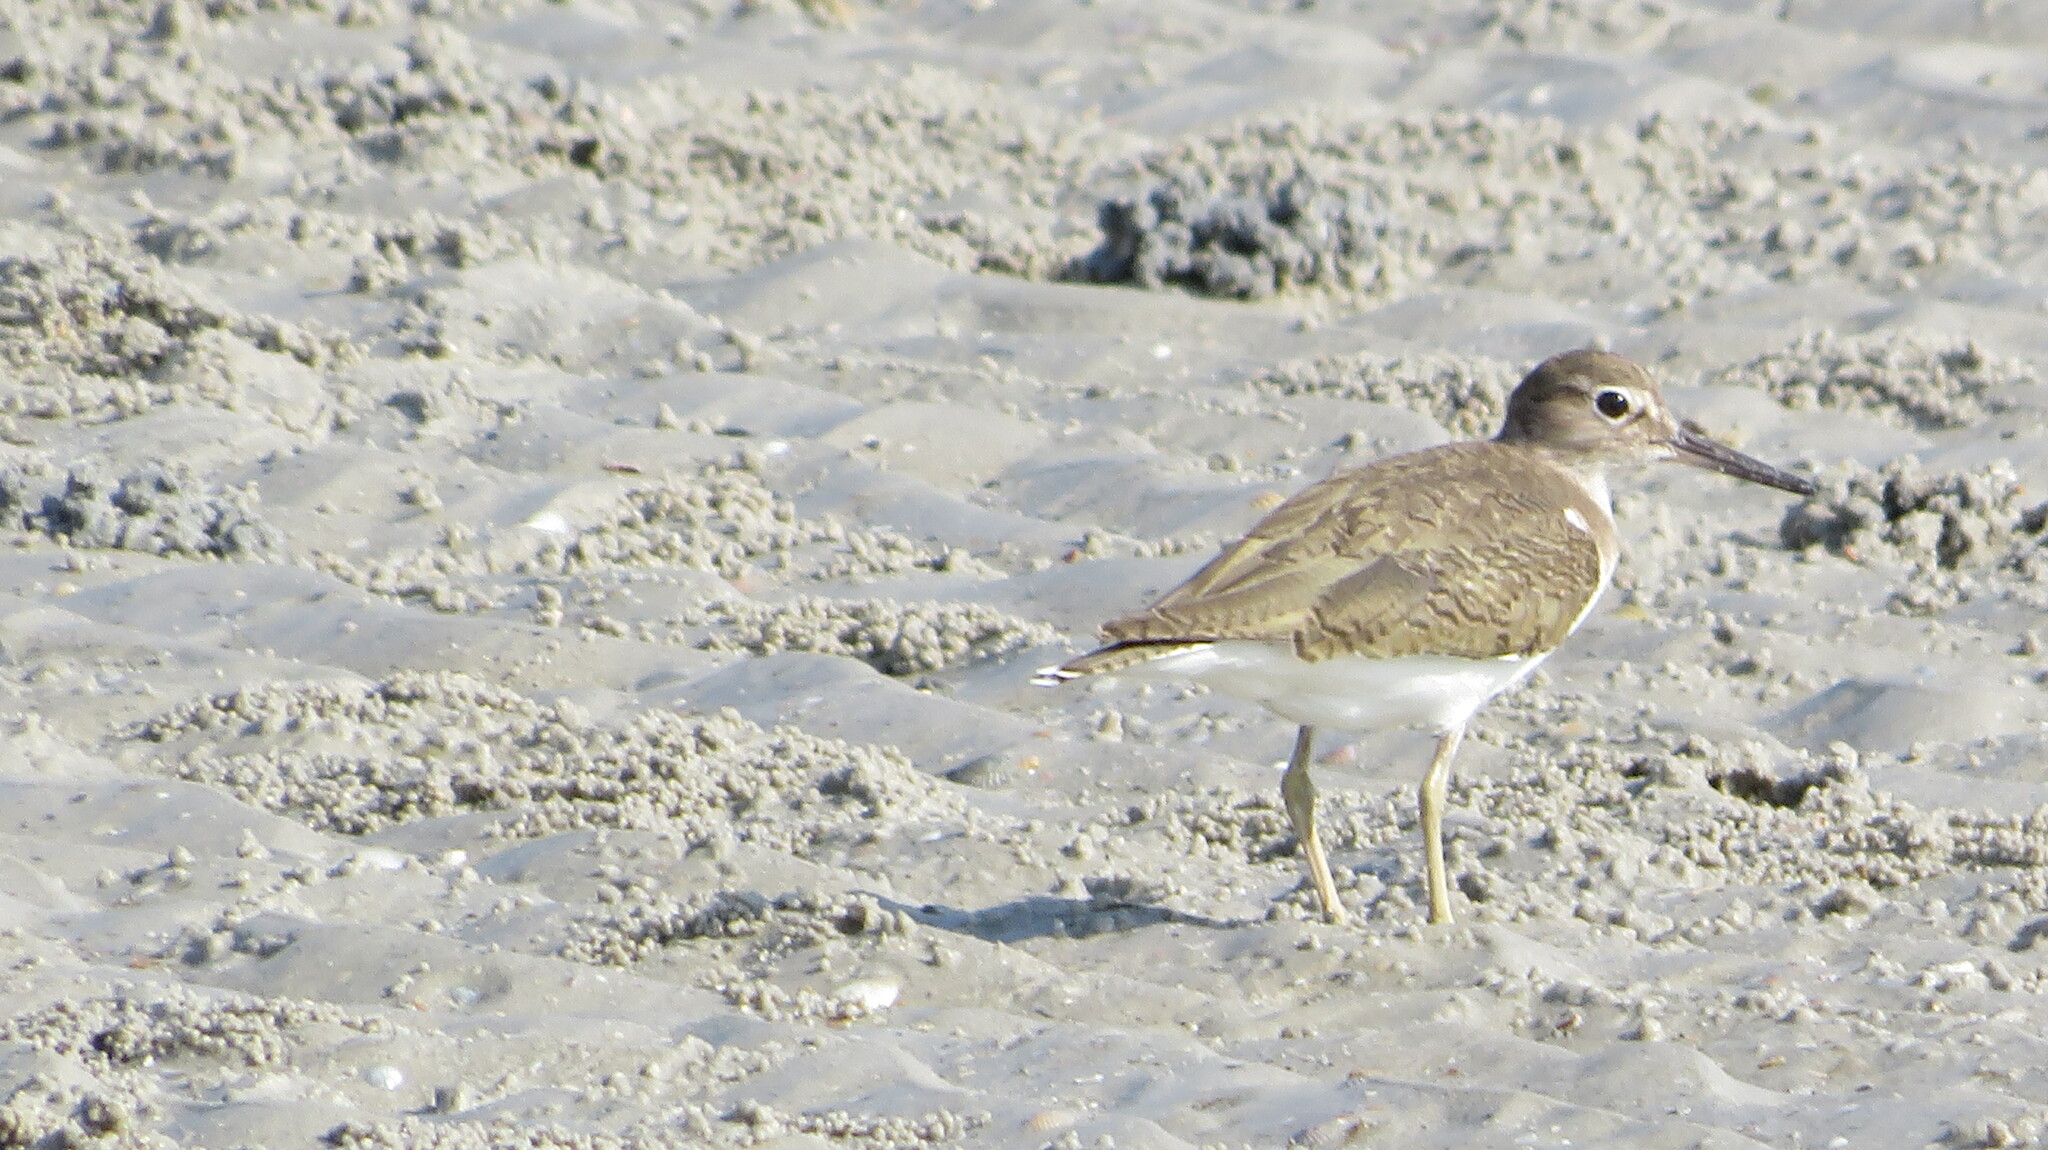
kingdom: Animalia
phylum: Chordata
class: Aves
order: Charadriiformes
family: Scolopacidae
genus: Actitis
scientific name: Actitis hypoleucos
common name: Common sandpiper
